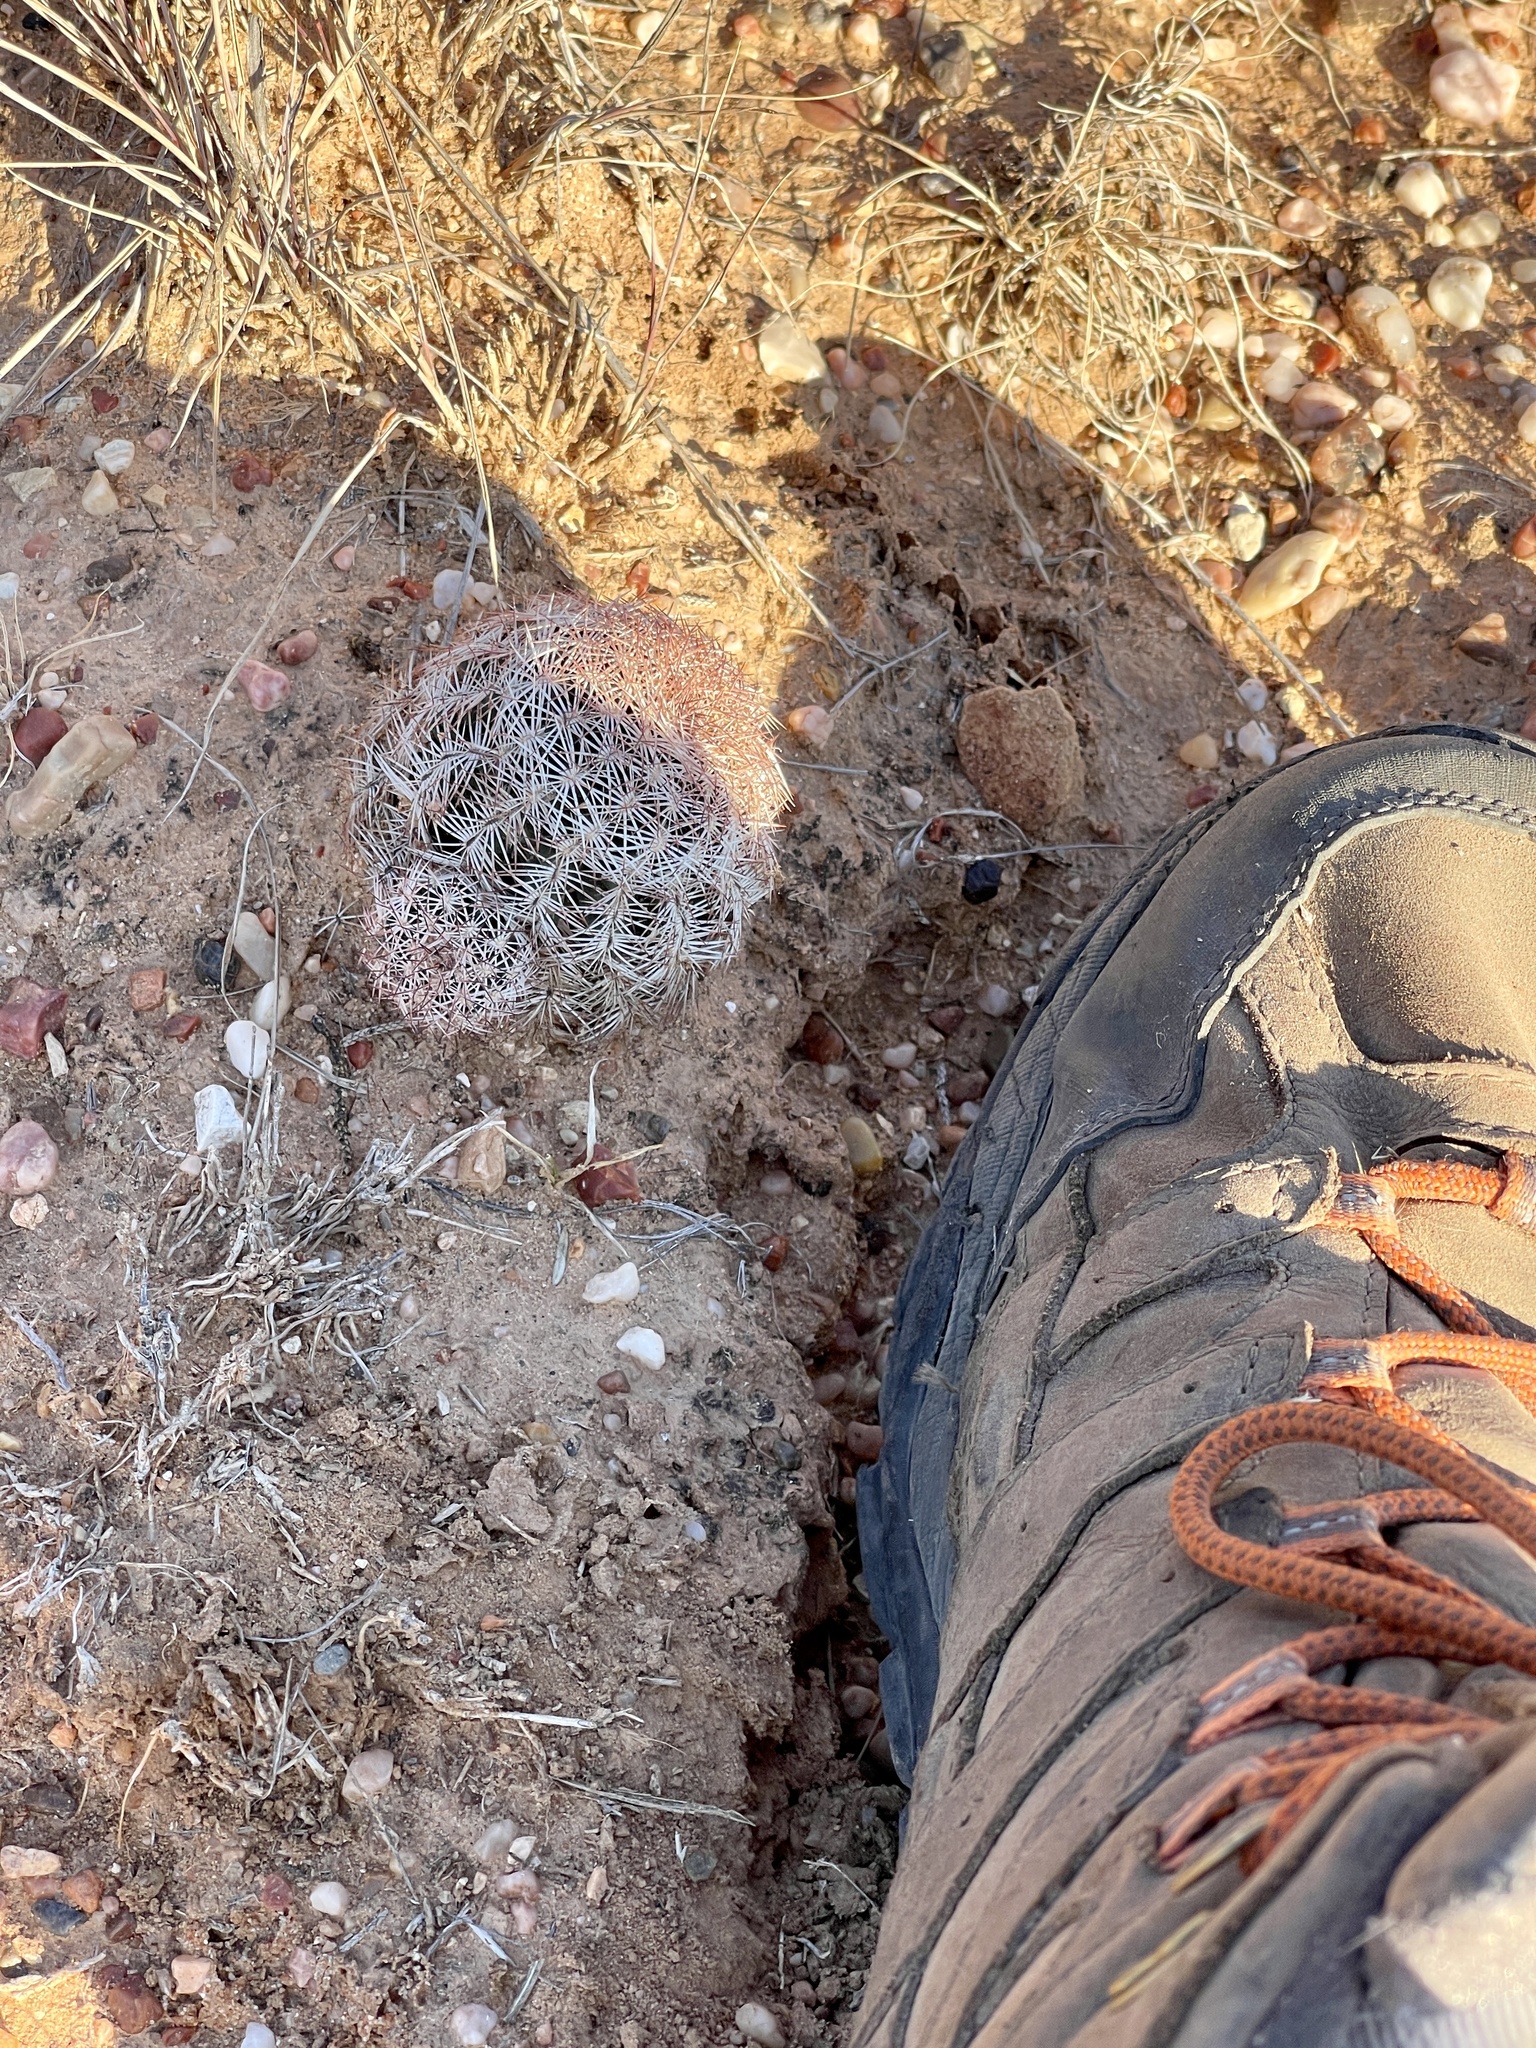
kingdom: Plantae
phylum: Tracheophyta
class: Magnoliopsida
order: Caryophyllales
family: Cactaceae
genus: Echinocereus
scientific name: Echinocereus reichenbachii
